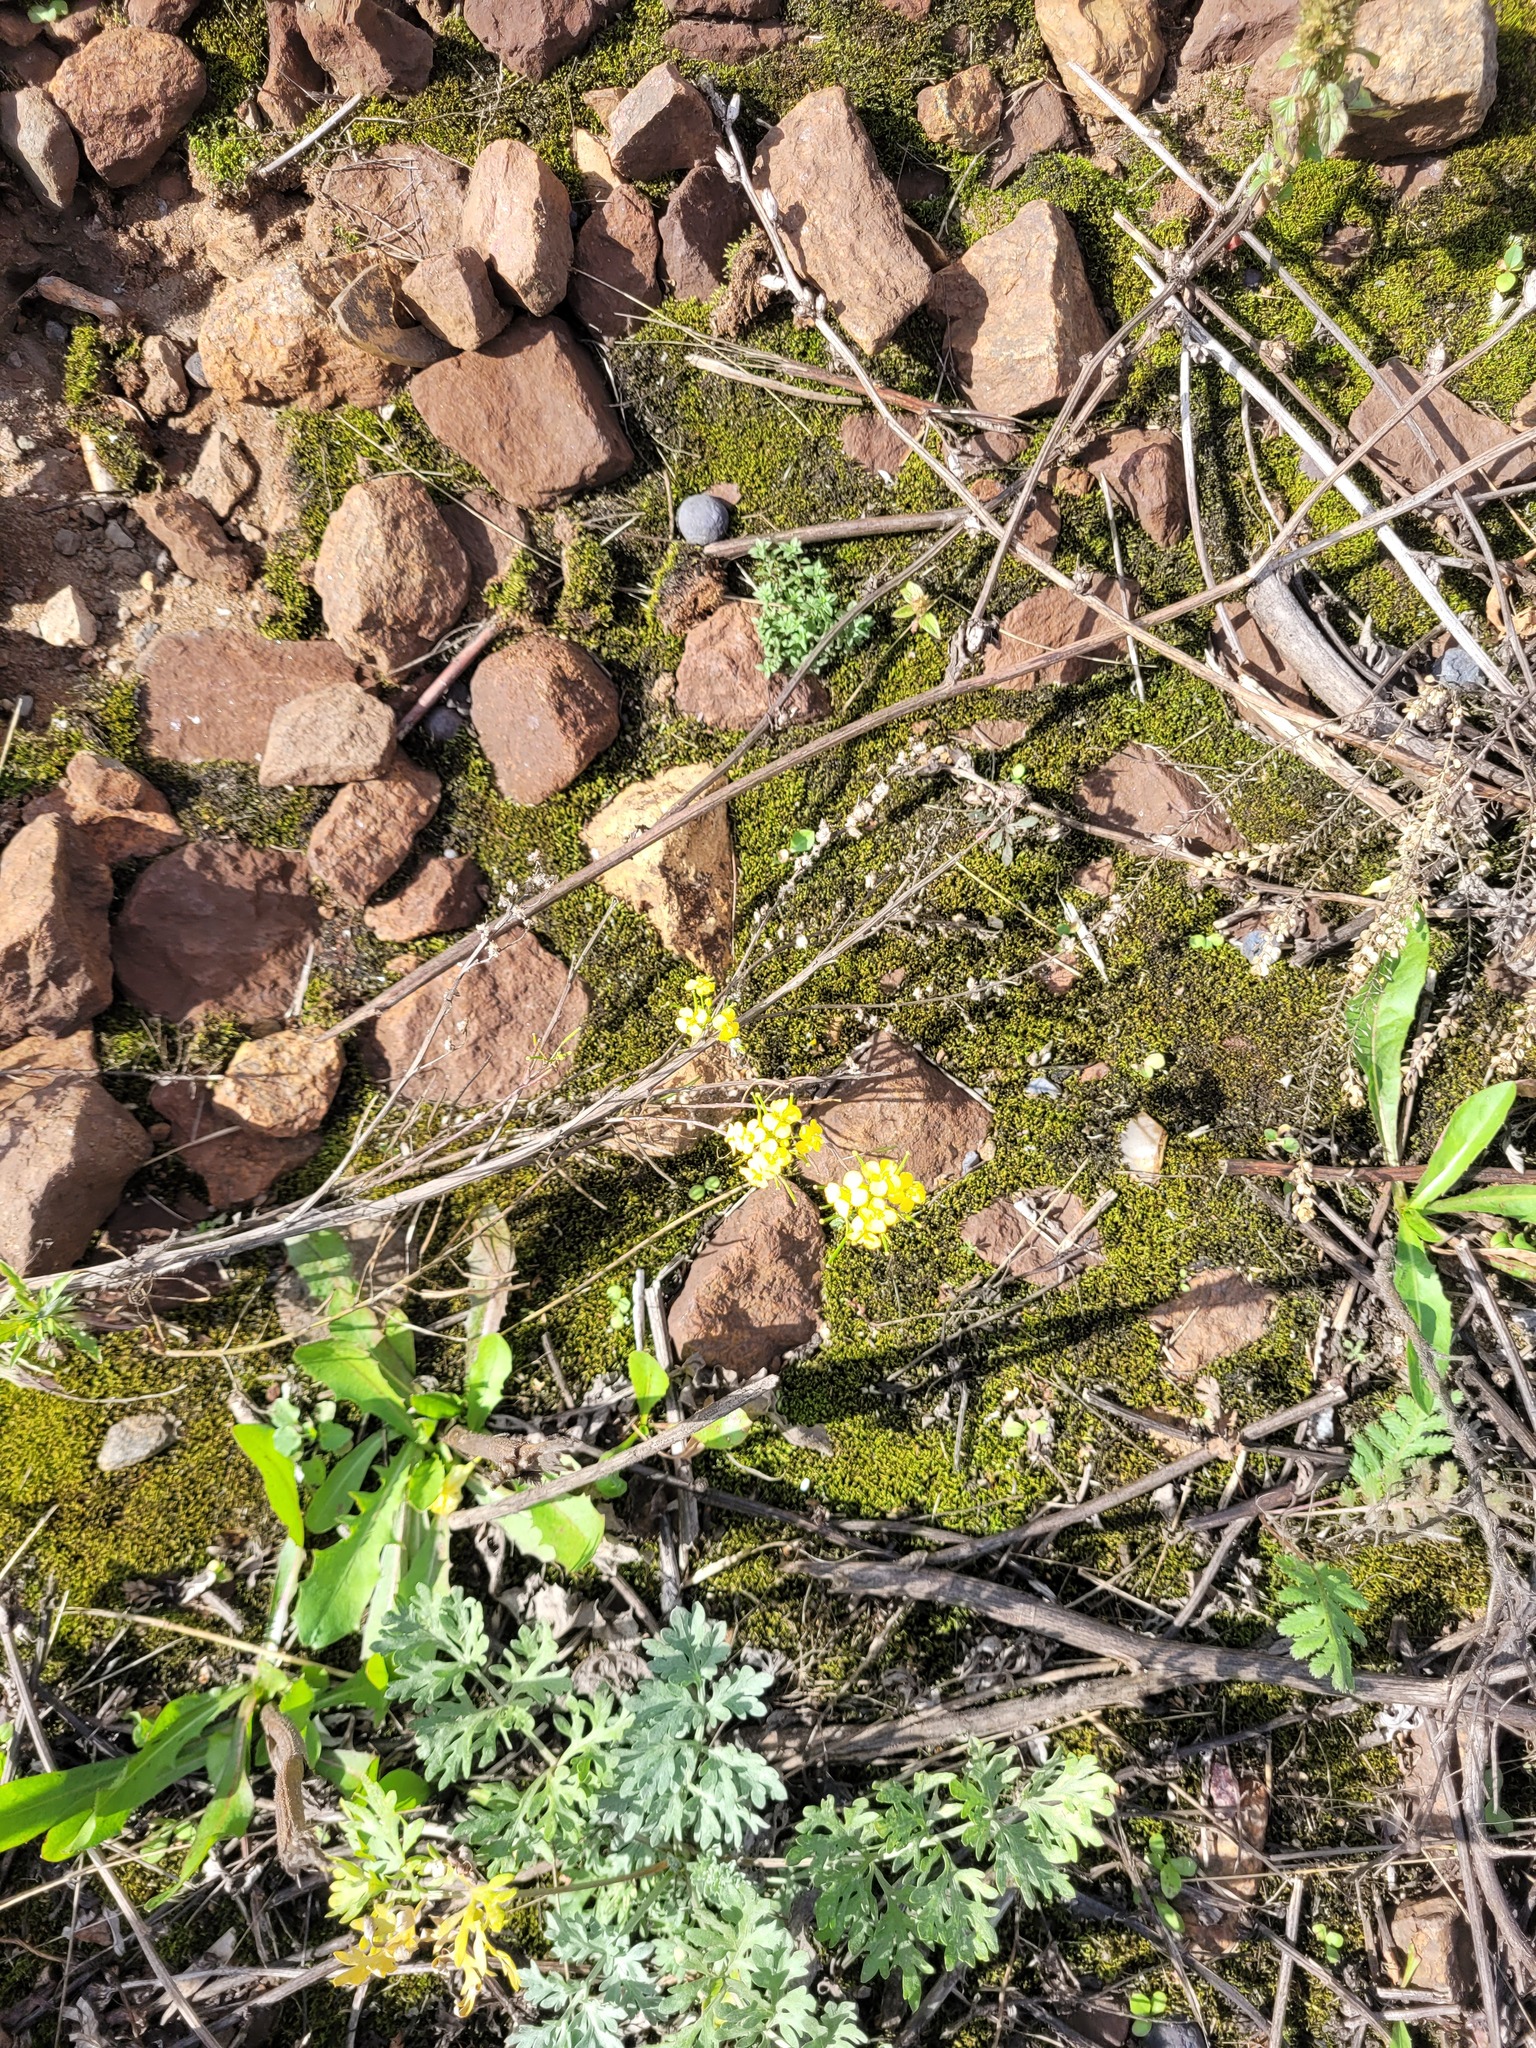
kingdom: Plantae
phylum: Tracheophyta
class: Magnoliopsida
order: Brassicales
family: Brassicaceae
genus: Sisymbrium
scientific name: Sisymbrium loeselii
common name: False london-rocket
